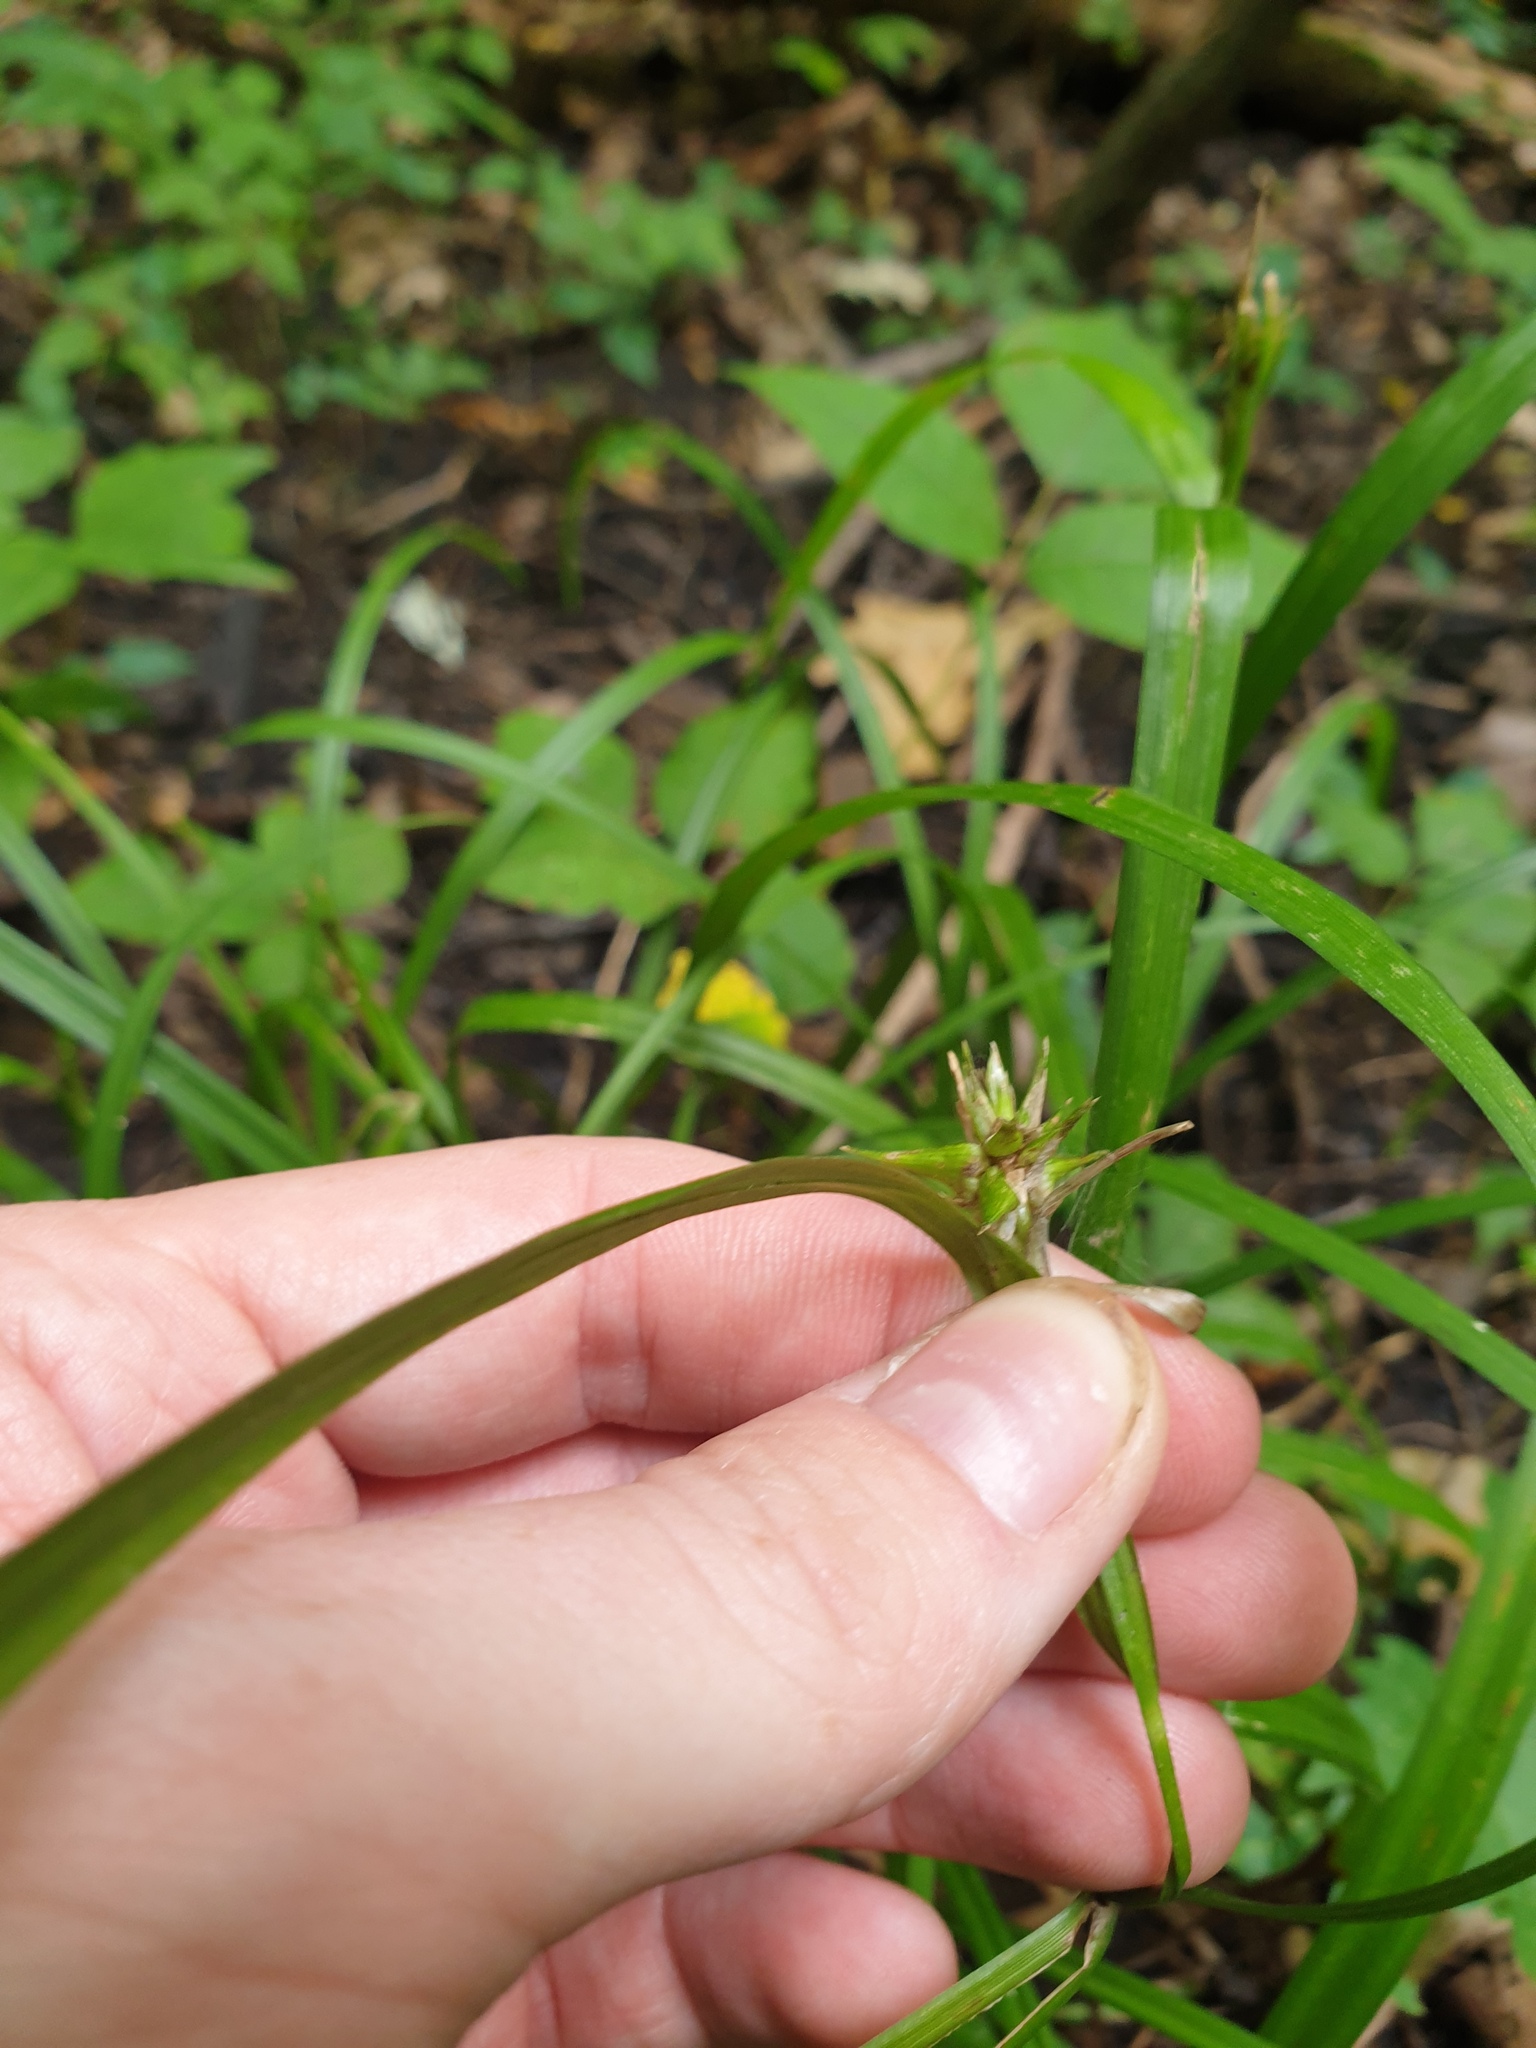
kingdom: Plantae
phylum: Tracheophyta
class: Liliopsida
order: Poales
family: Cyperaceae
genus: Carex
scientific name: Carex grayi
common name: Asa gray's sedge
